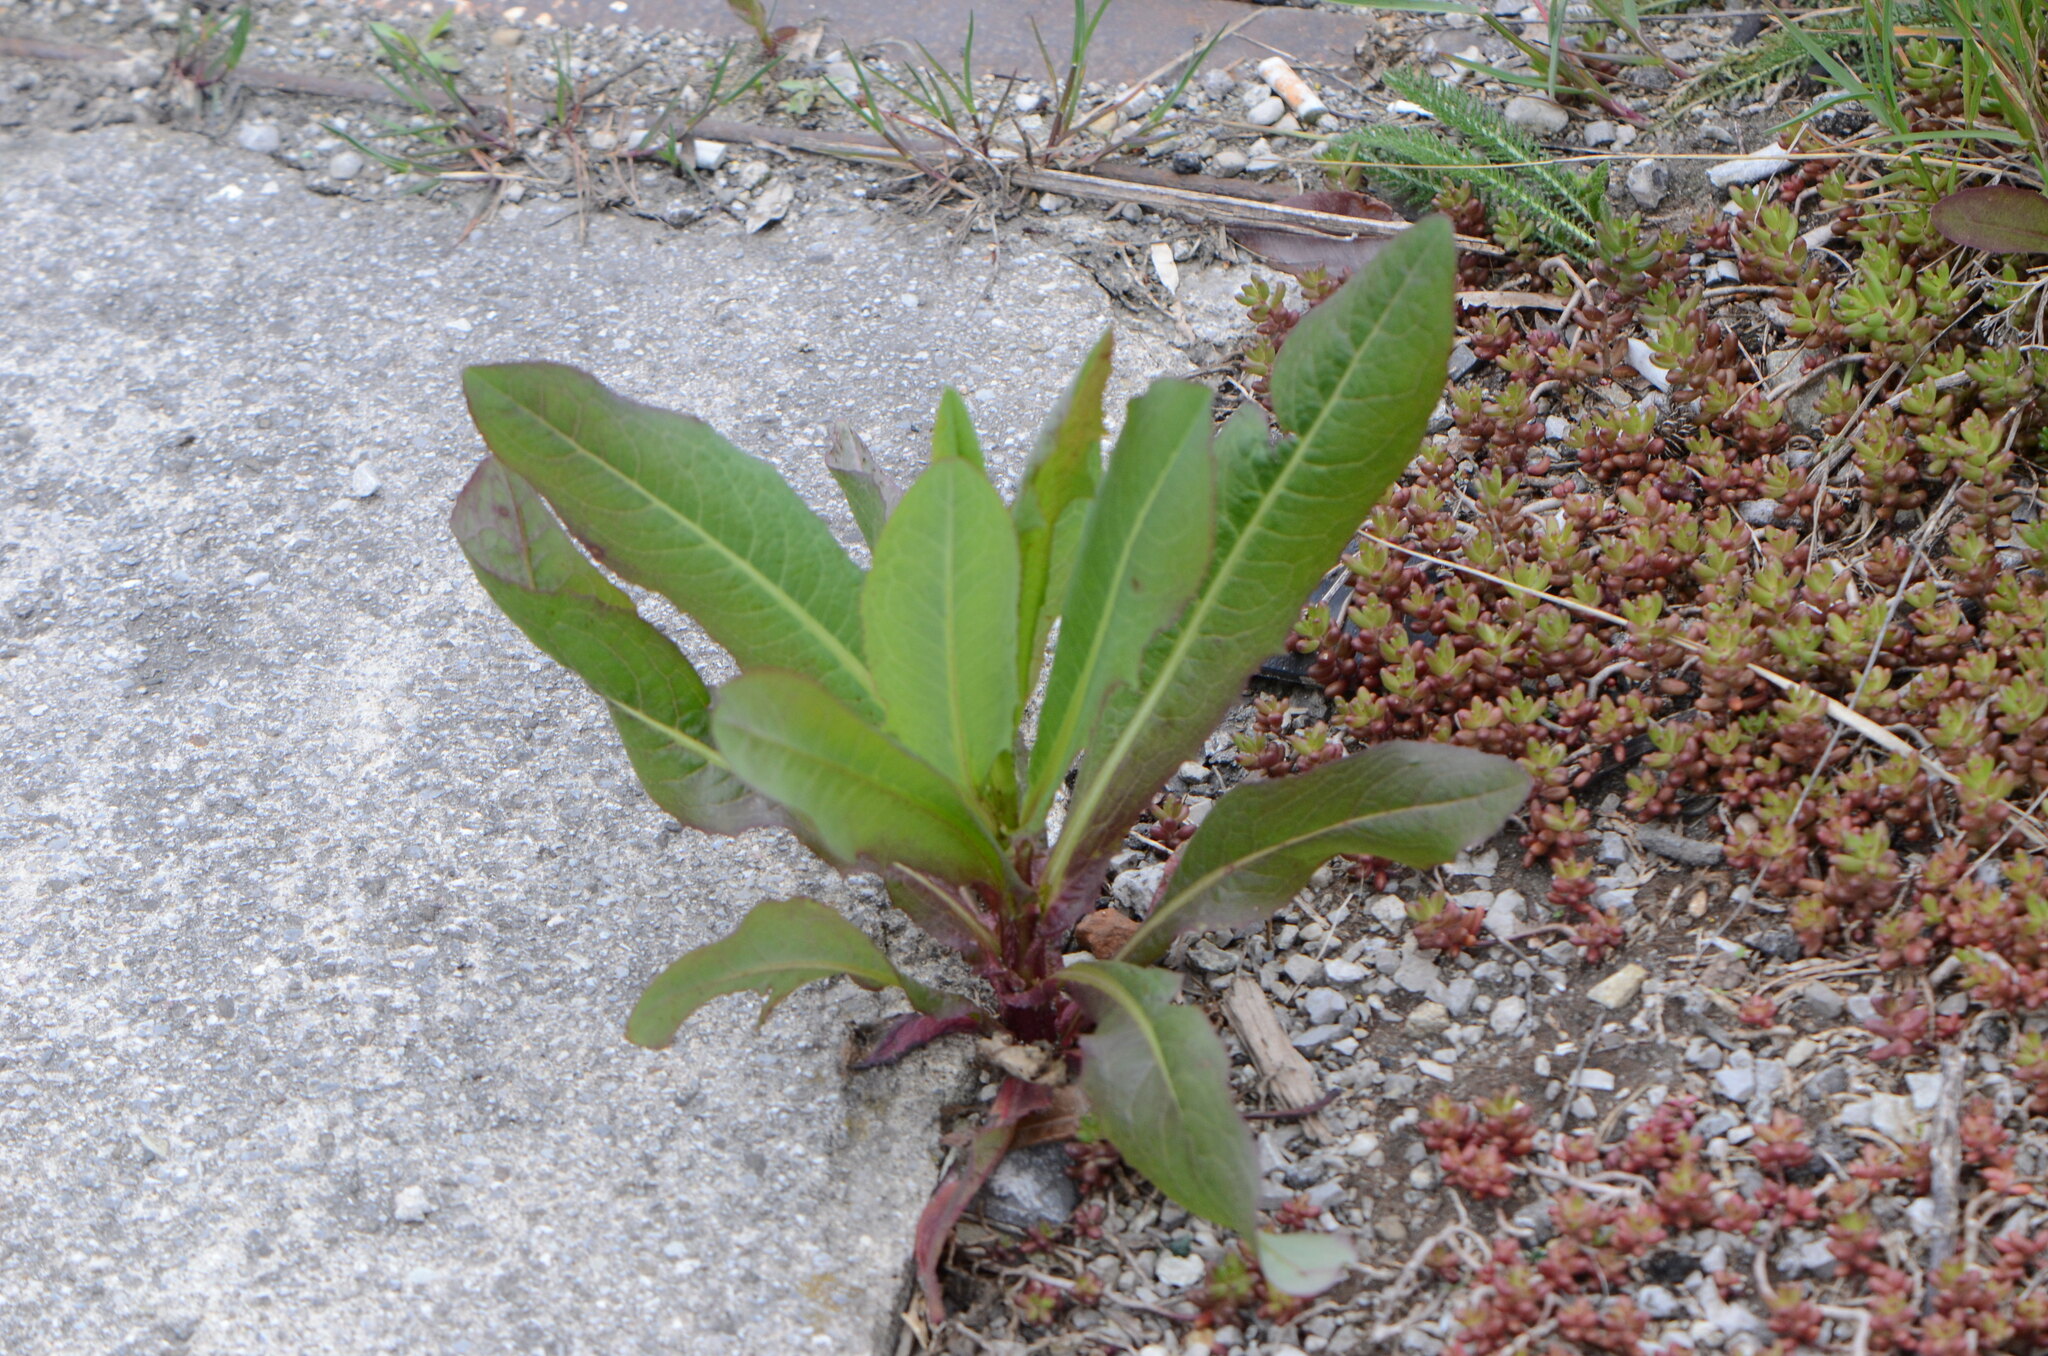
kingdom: Plantae
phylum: Tracheophyta
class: Magnoliopsida
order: Asterales
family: Asteraceae
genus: Lactuca
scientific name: Lactuca serriola
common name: Prickly lettuce
